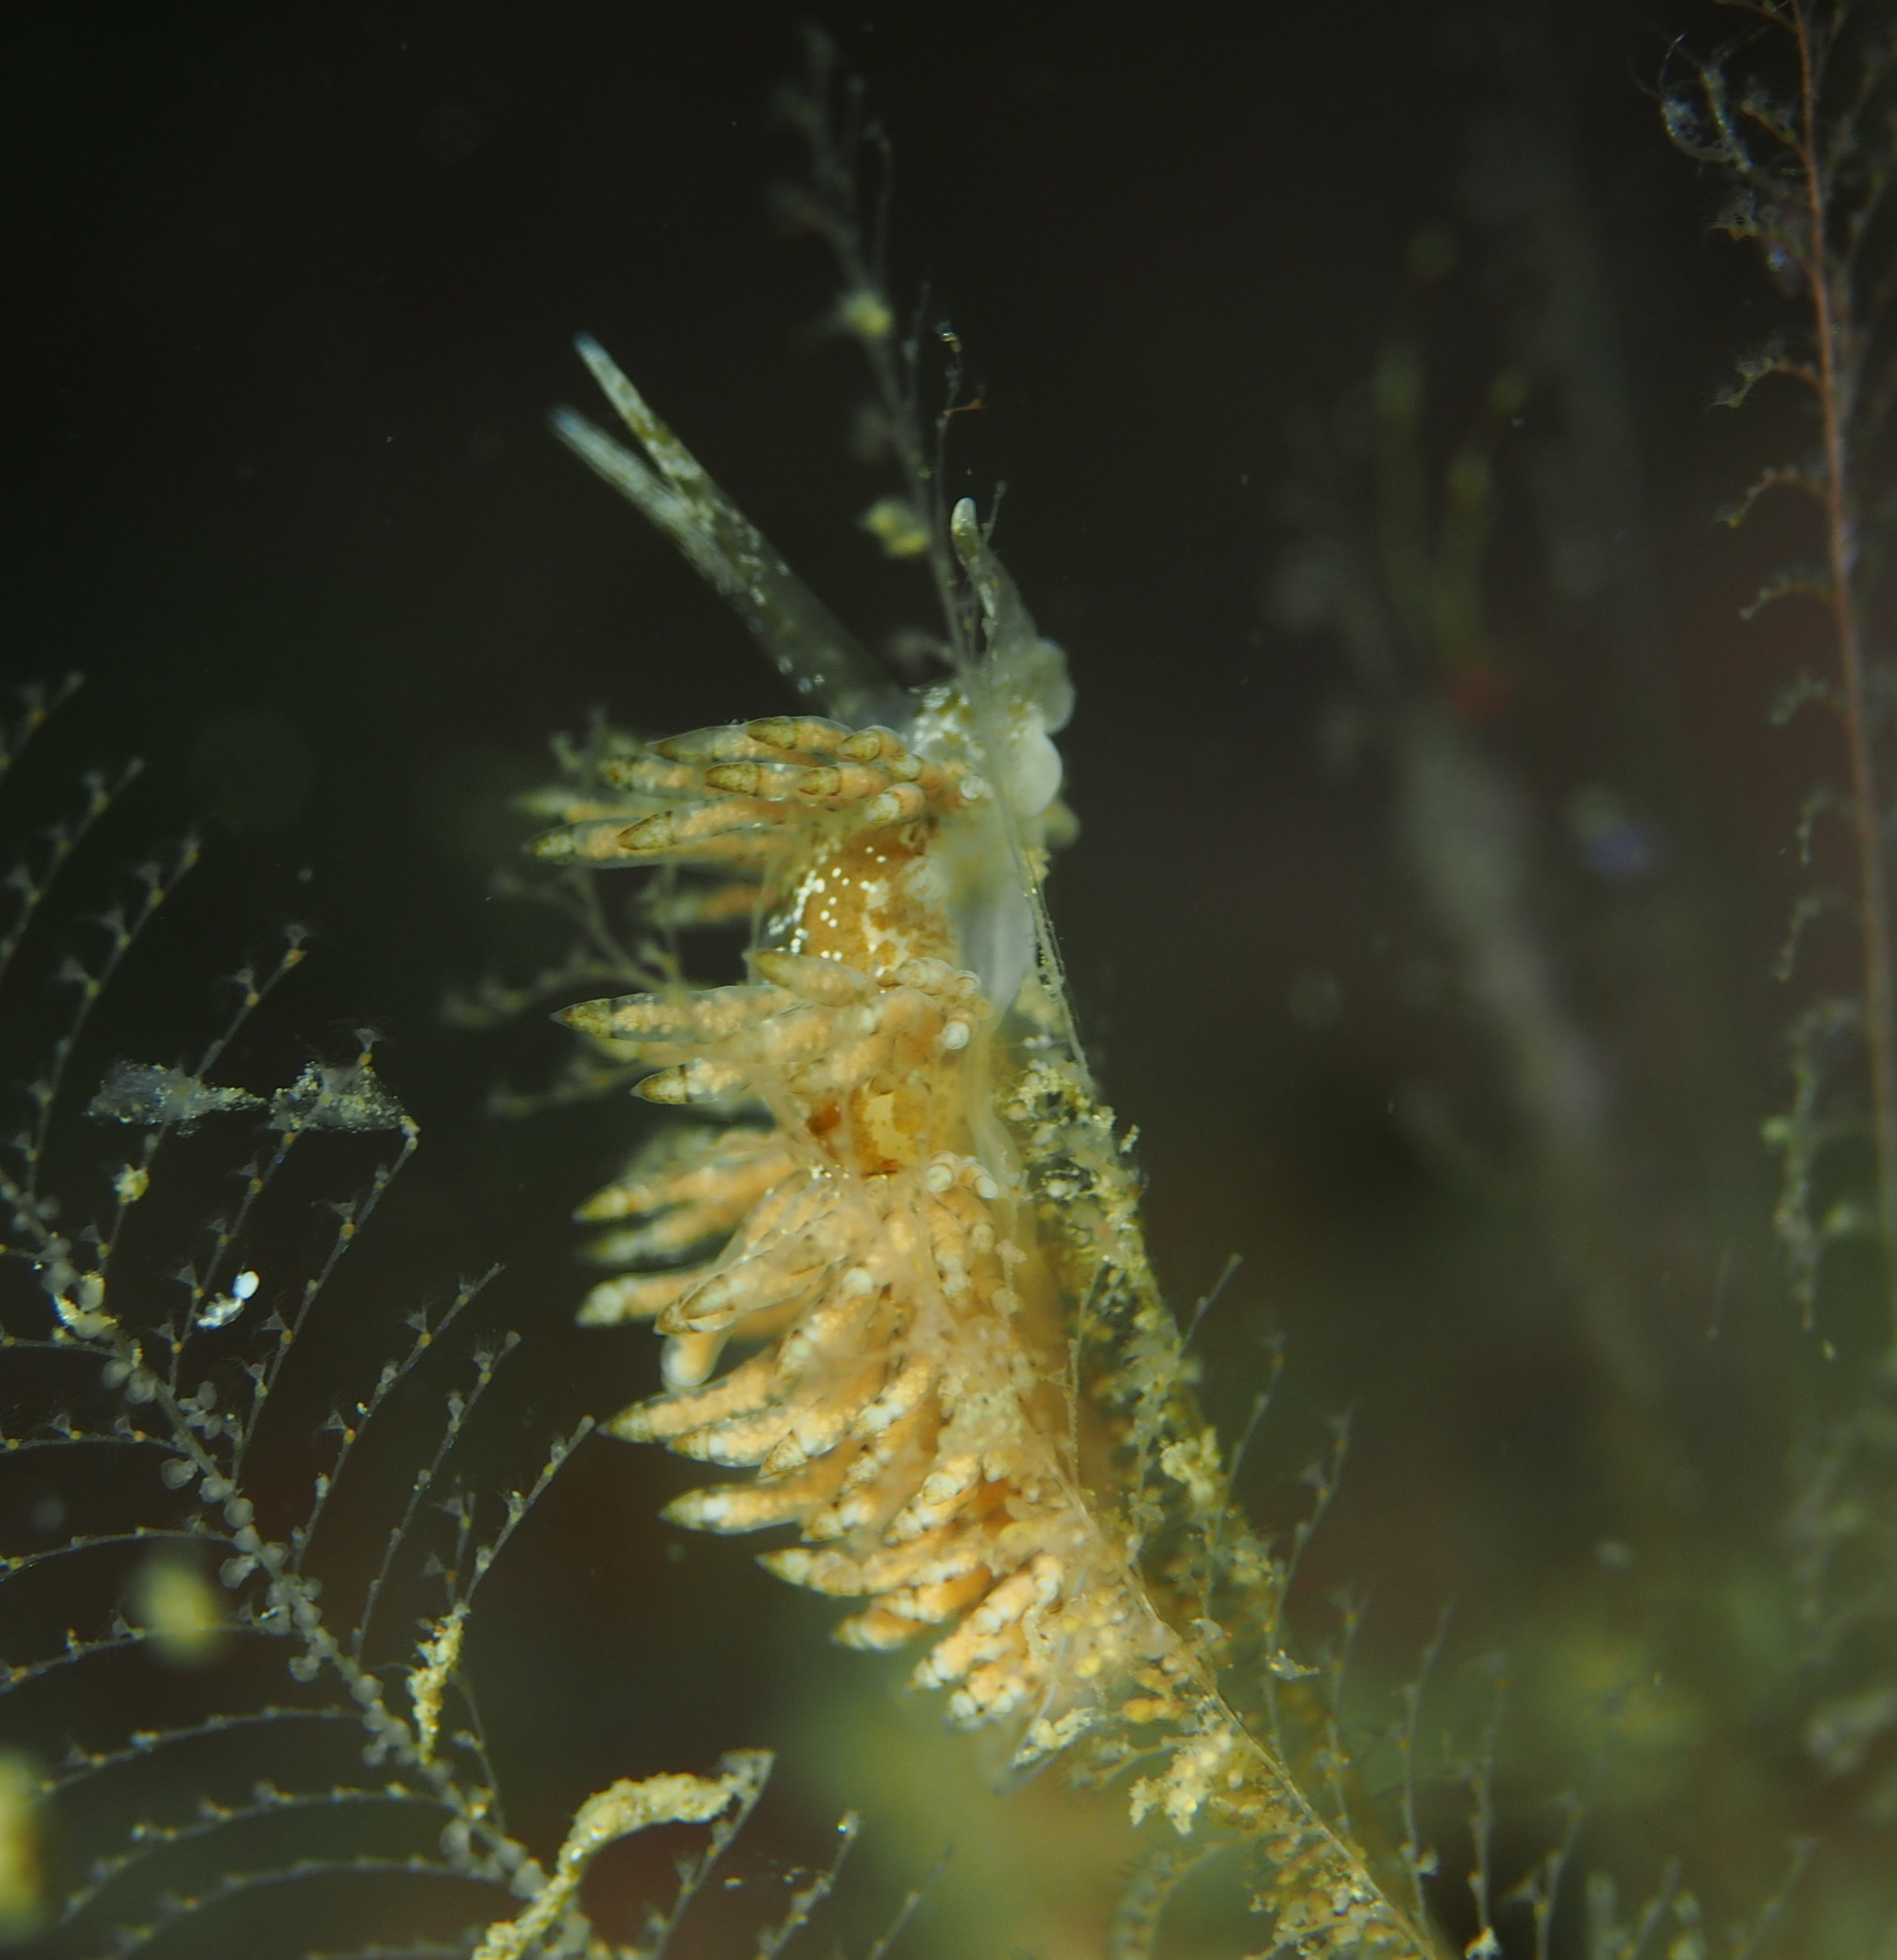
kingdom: Animalia
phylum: Mollusca
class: Gastropoda
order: Nudibranchia
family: Eubranchidae
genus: Eubranchus
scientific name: Eubranchus vittatus
